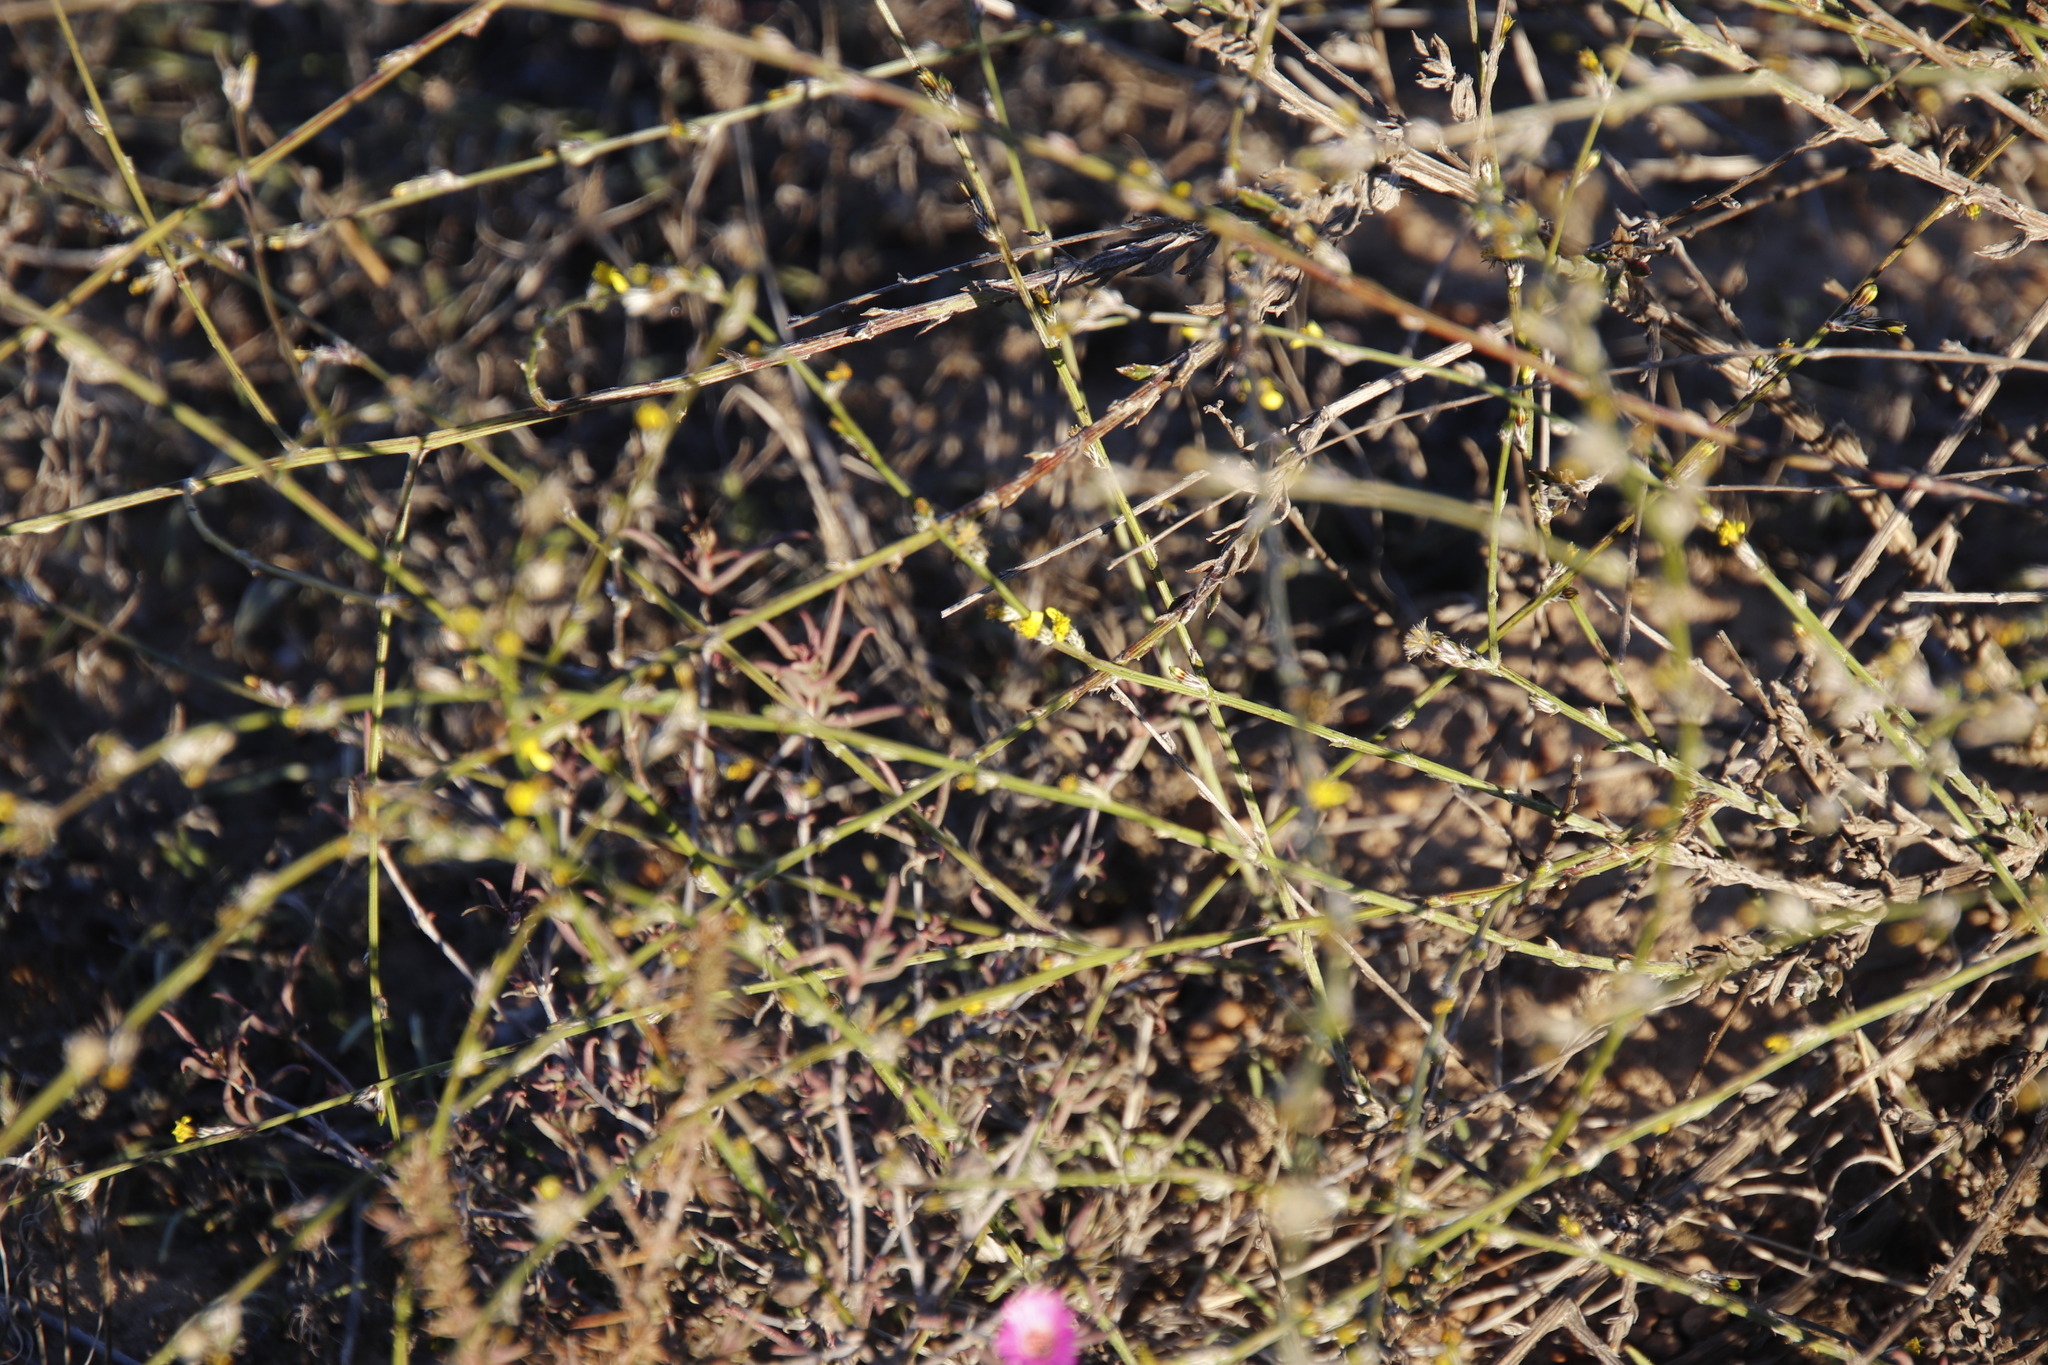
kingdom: Plantae
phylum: Tracheophyta
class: Magnoliopsida
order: Asterales
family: Asteraceae
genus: Senecio
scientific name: Senecio pubigerus
